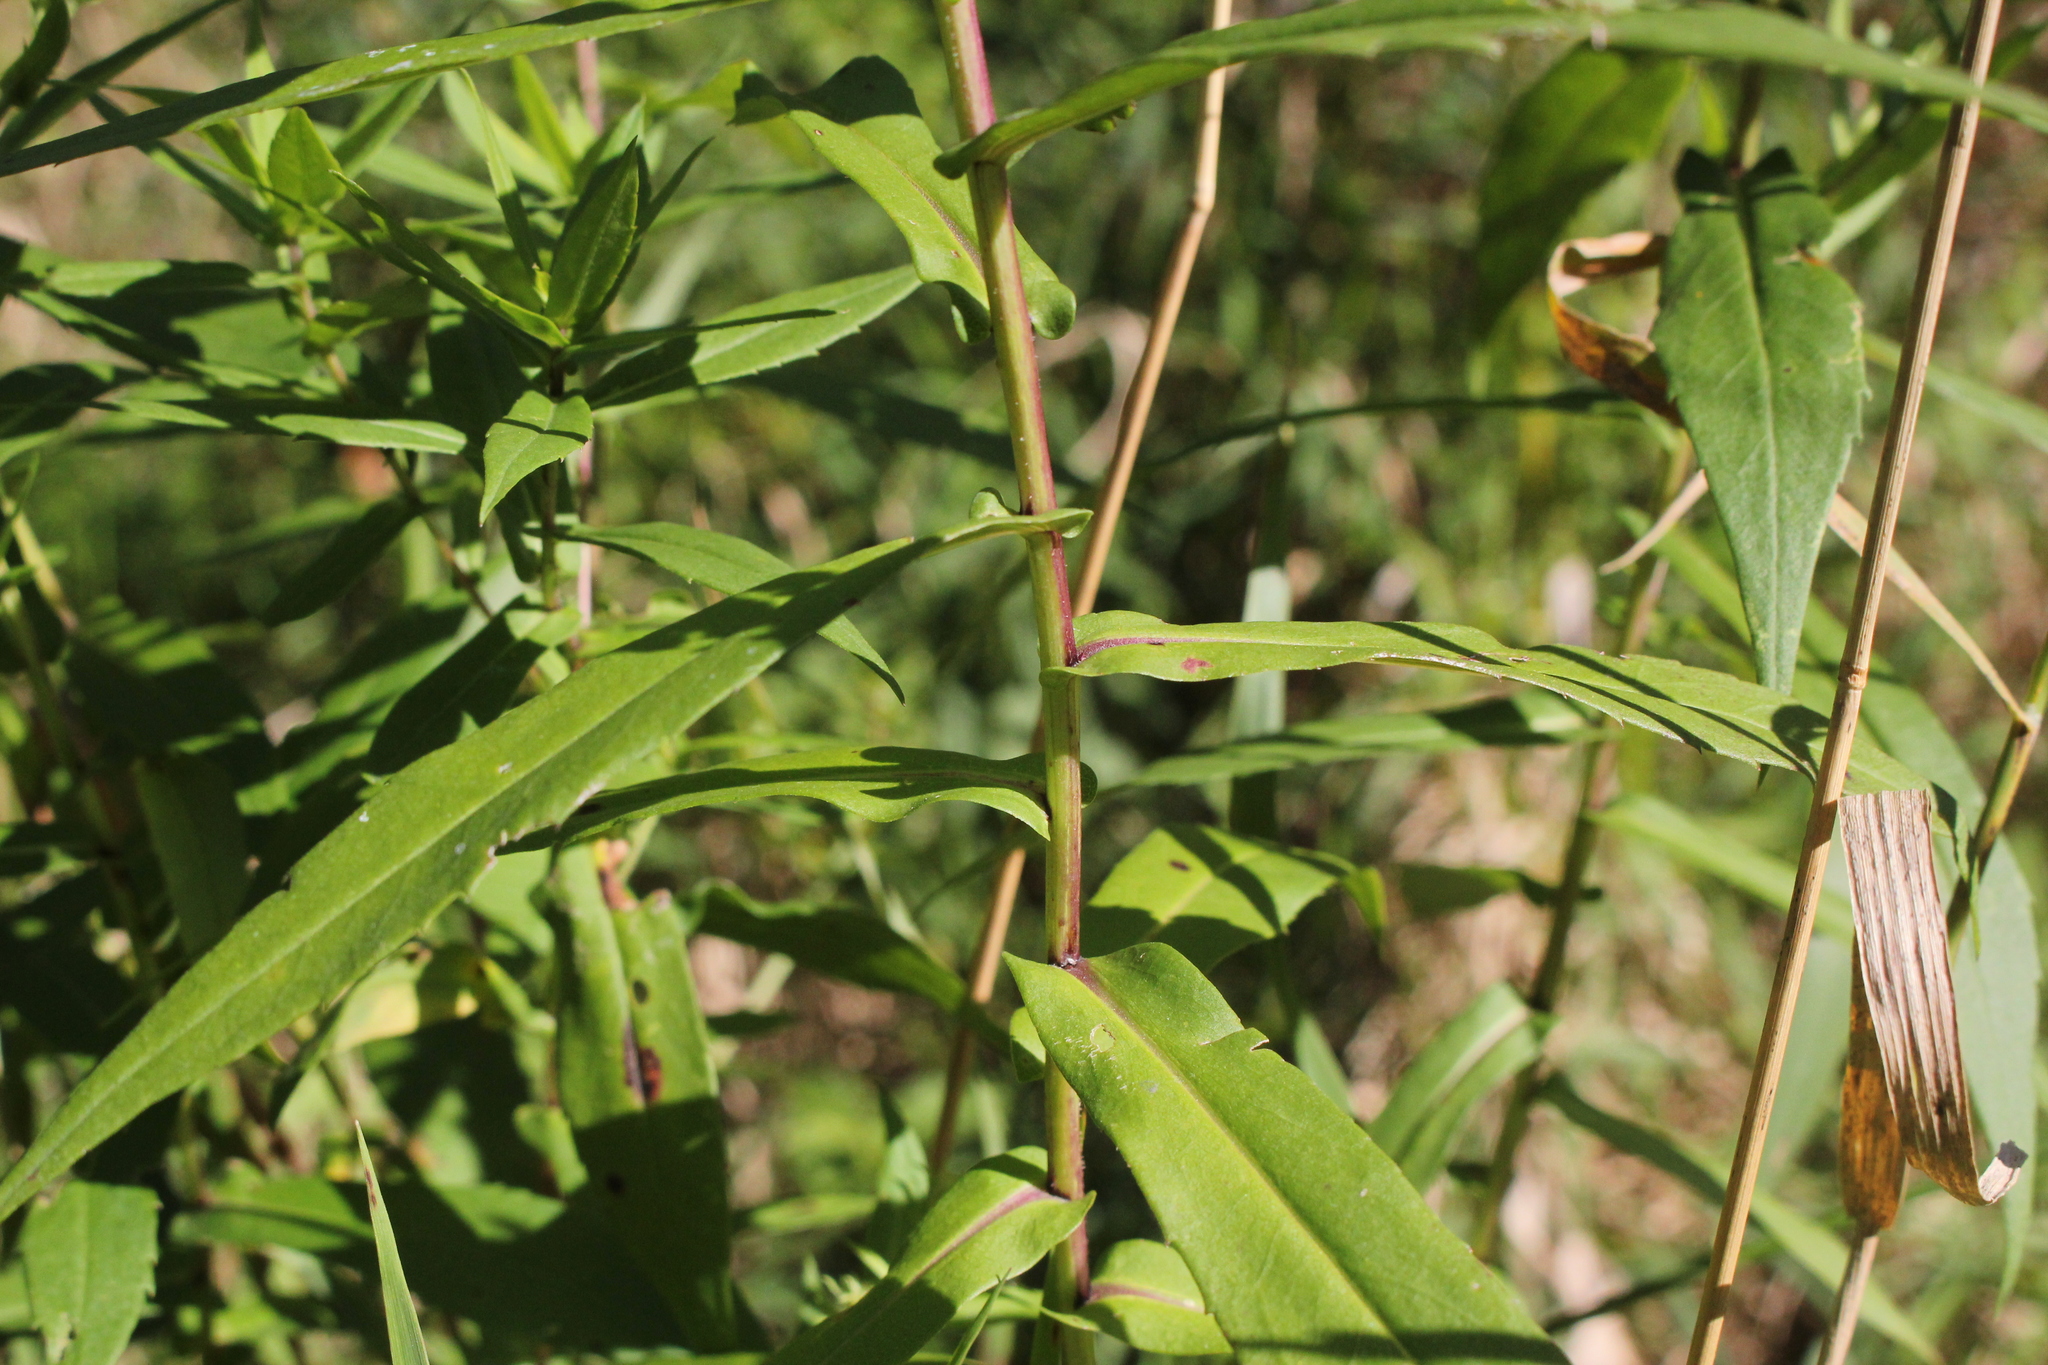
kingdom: Plantae
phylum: Tracheophyta
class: Magnoliopsida
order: Asterales
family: Asteraceae
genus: Symphyotrichum
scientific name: Symphyotrichum firmum
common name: Shining aster
